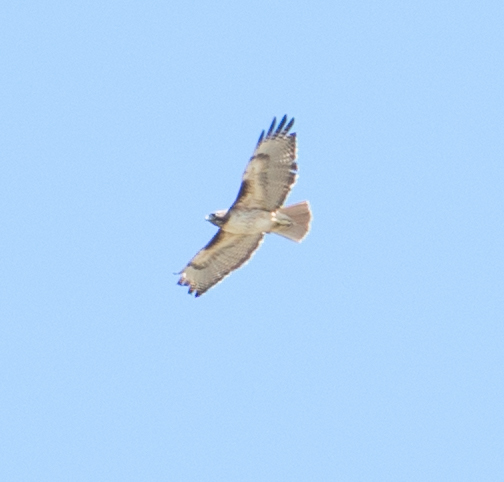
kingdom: Animalia
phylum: Chordata
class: Aves
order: Accipitriformes
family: Accipitridae
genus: Buteo
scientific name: Buteo jamaicensis
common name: Red-tailed hawk
